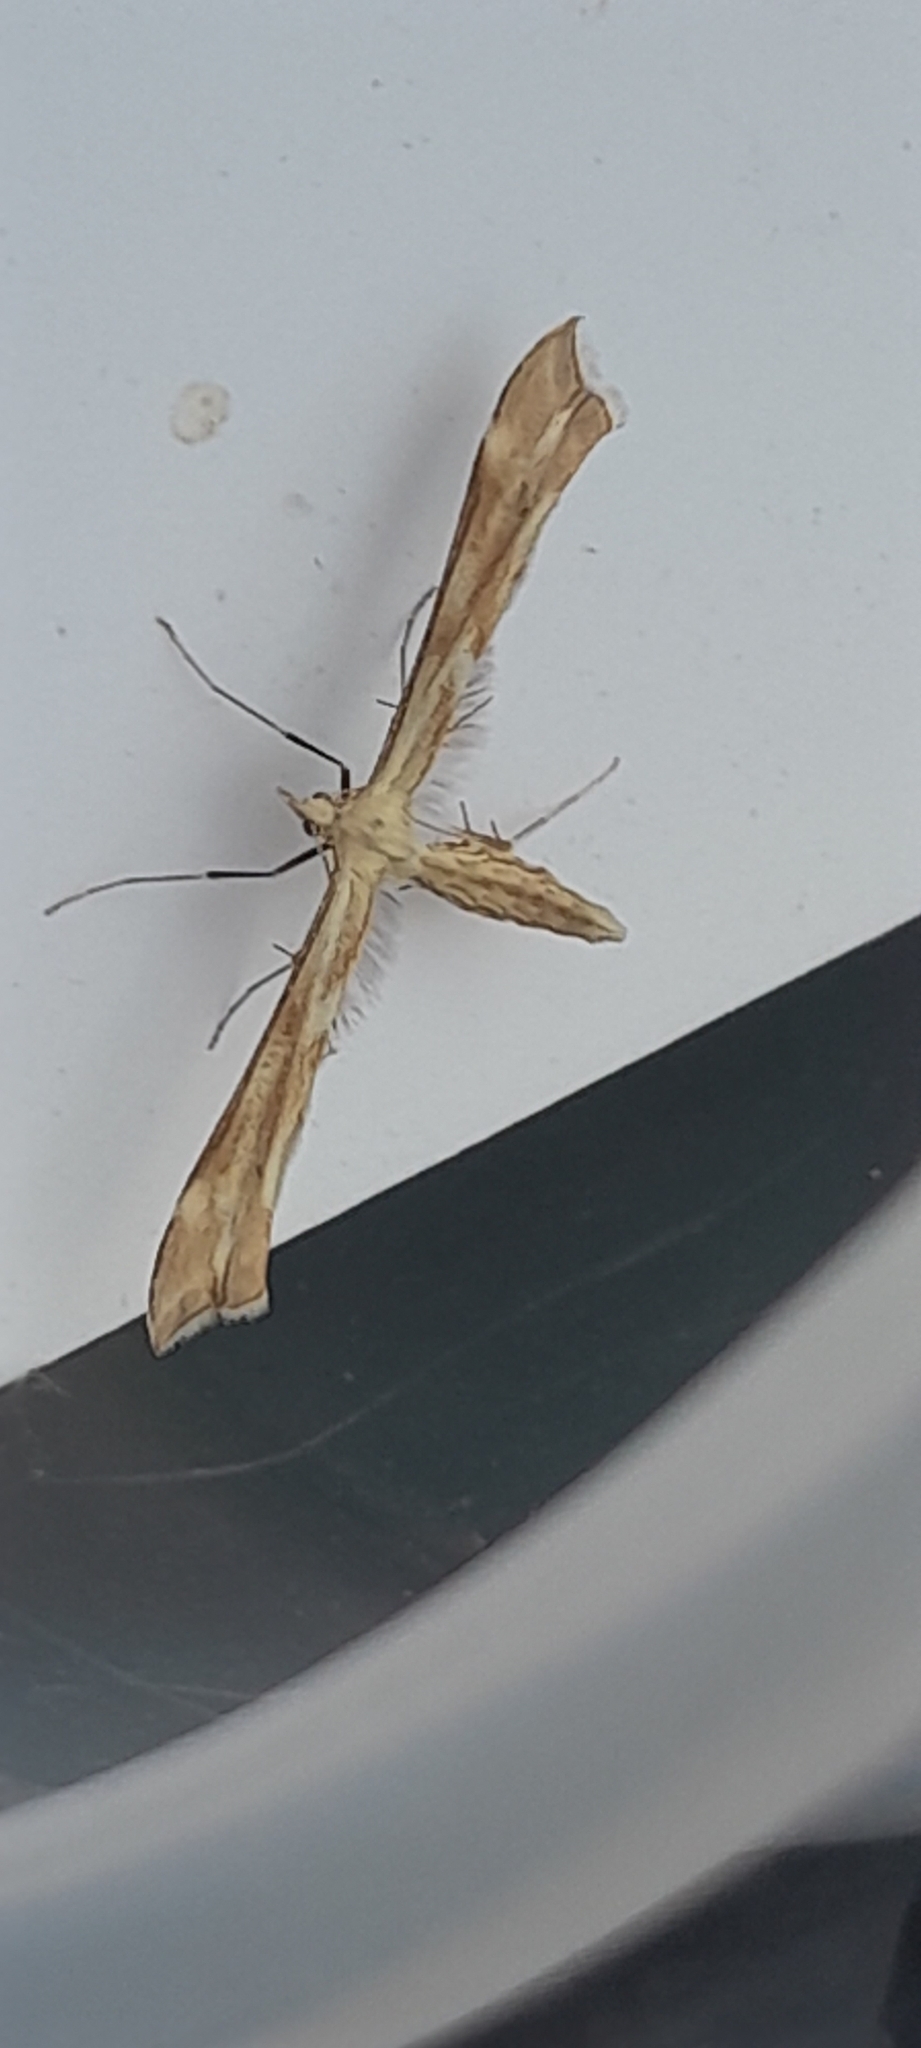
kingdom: Animalia
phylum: Arthropoda
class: Insecta
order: Lepidoptera
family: Pterophoridae
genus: Gillmeria
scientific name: Gillmeria pallidactyla
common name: Yarrow plume
